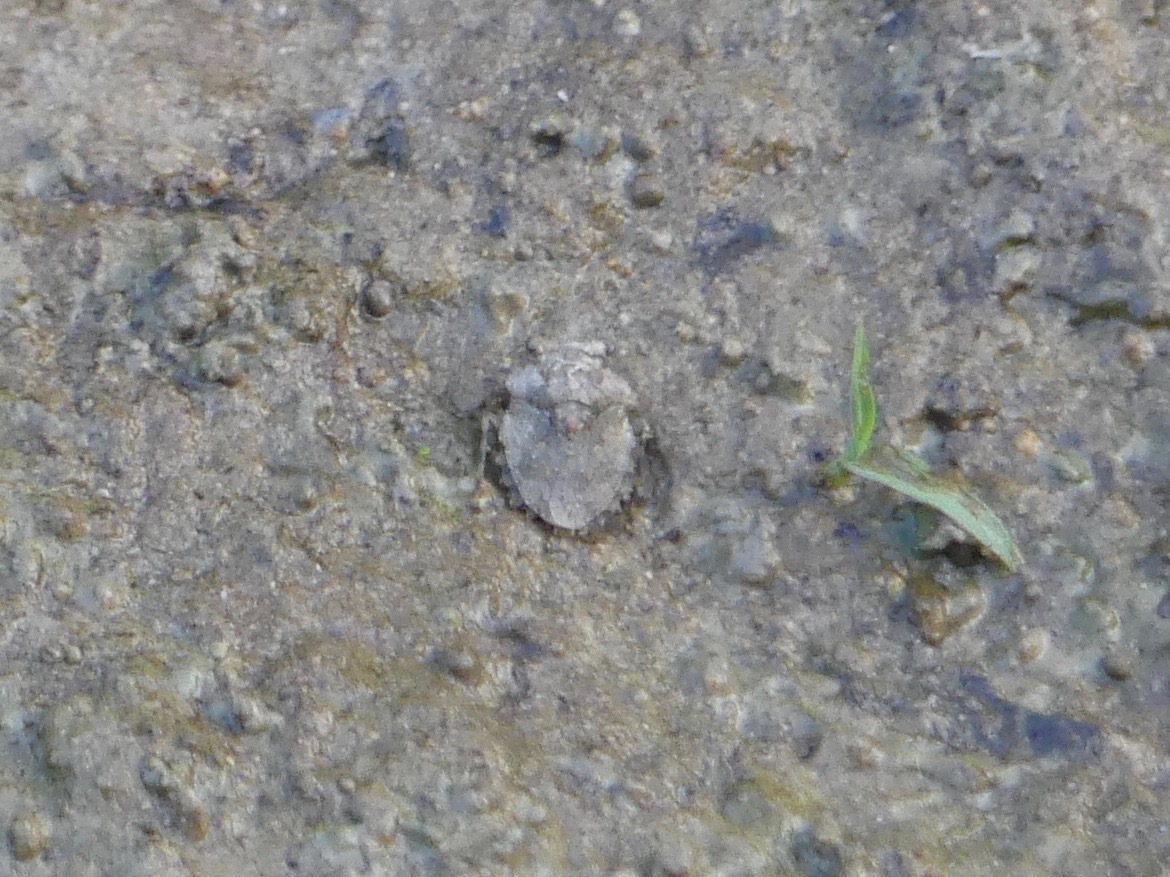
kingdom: Animalia
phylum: Arthropoda
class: Insecta
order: Hemiptera
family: Gelastocoridae
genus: Gelastocoris
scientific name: Gelastocoris oculatus
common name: Toad bug
